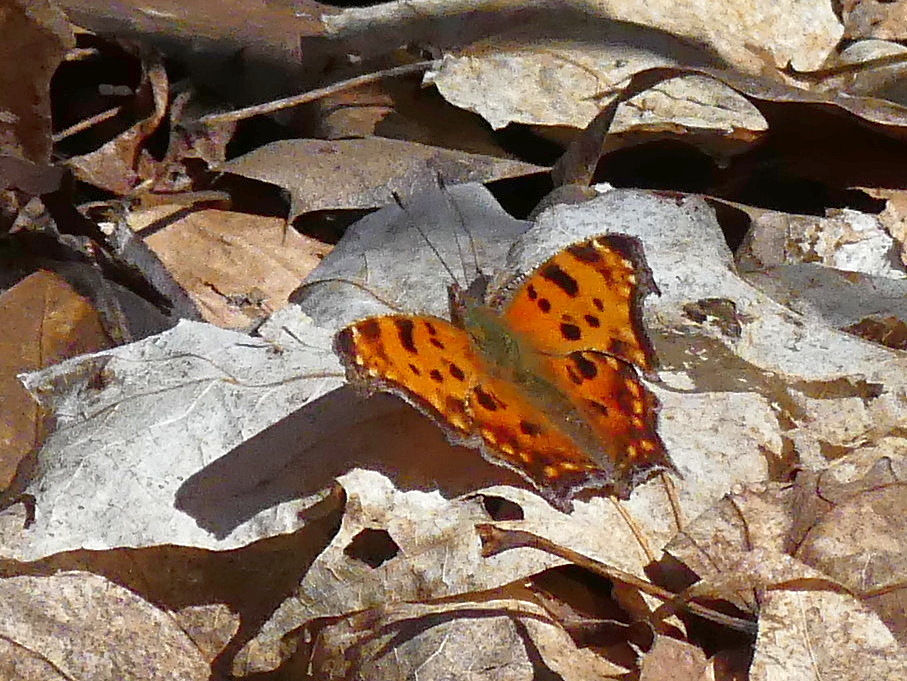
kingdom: Animalia
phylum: Arthropoda
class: Insecta
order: Lepidoptera
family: Nymphalidae
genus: Polygonia
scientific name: Polygonia comma
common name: Eastern comma
